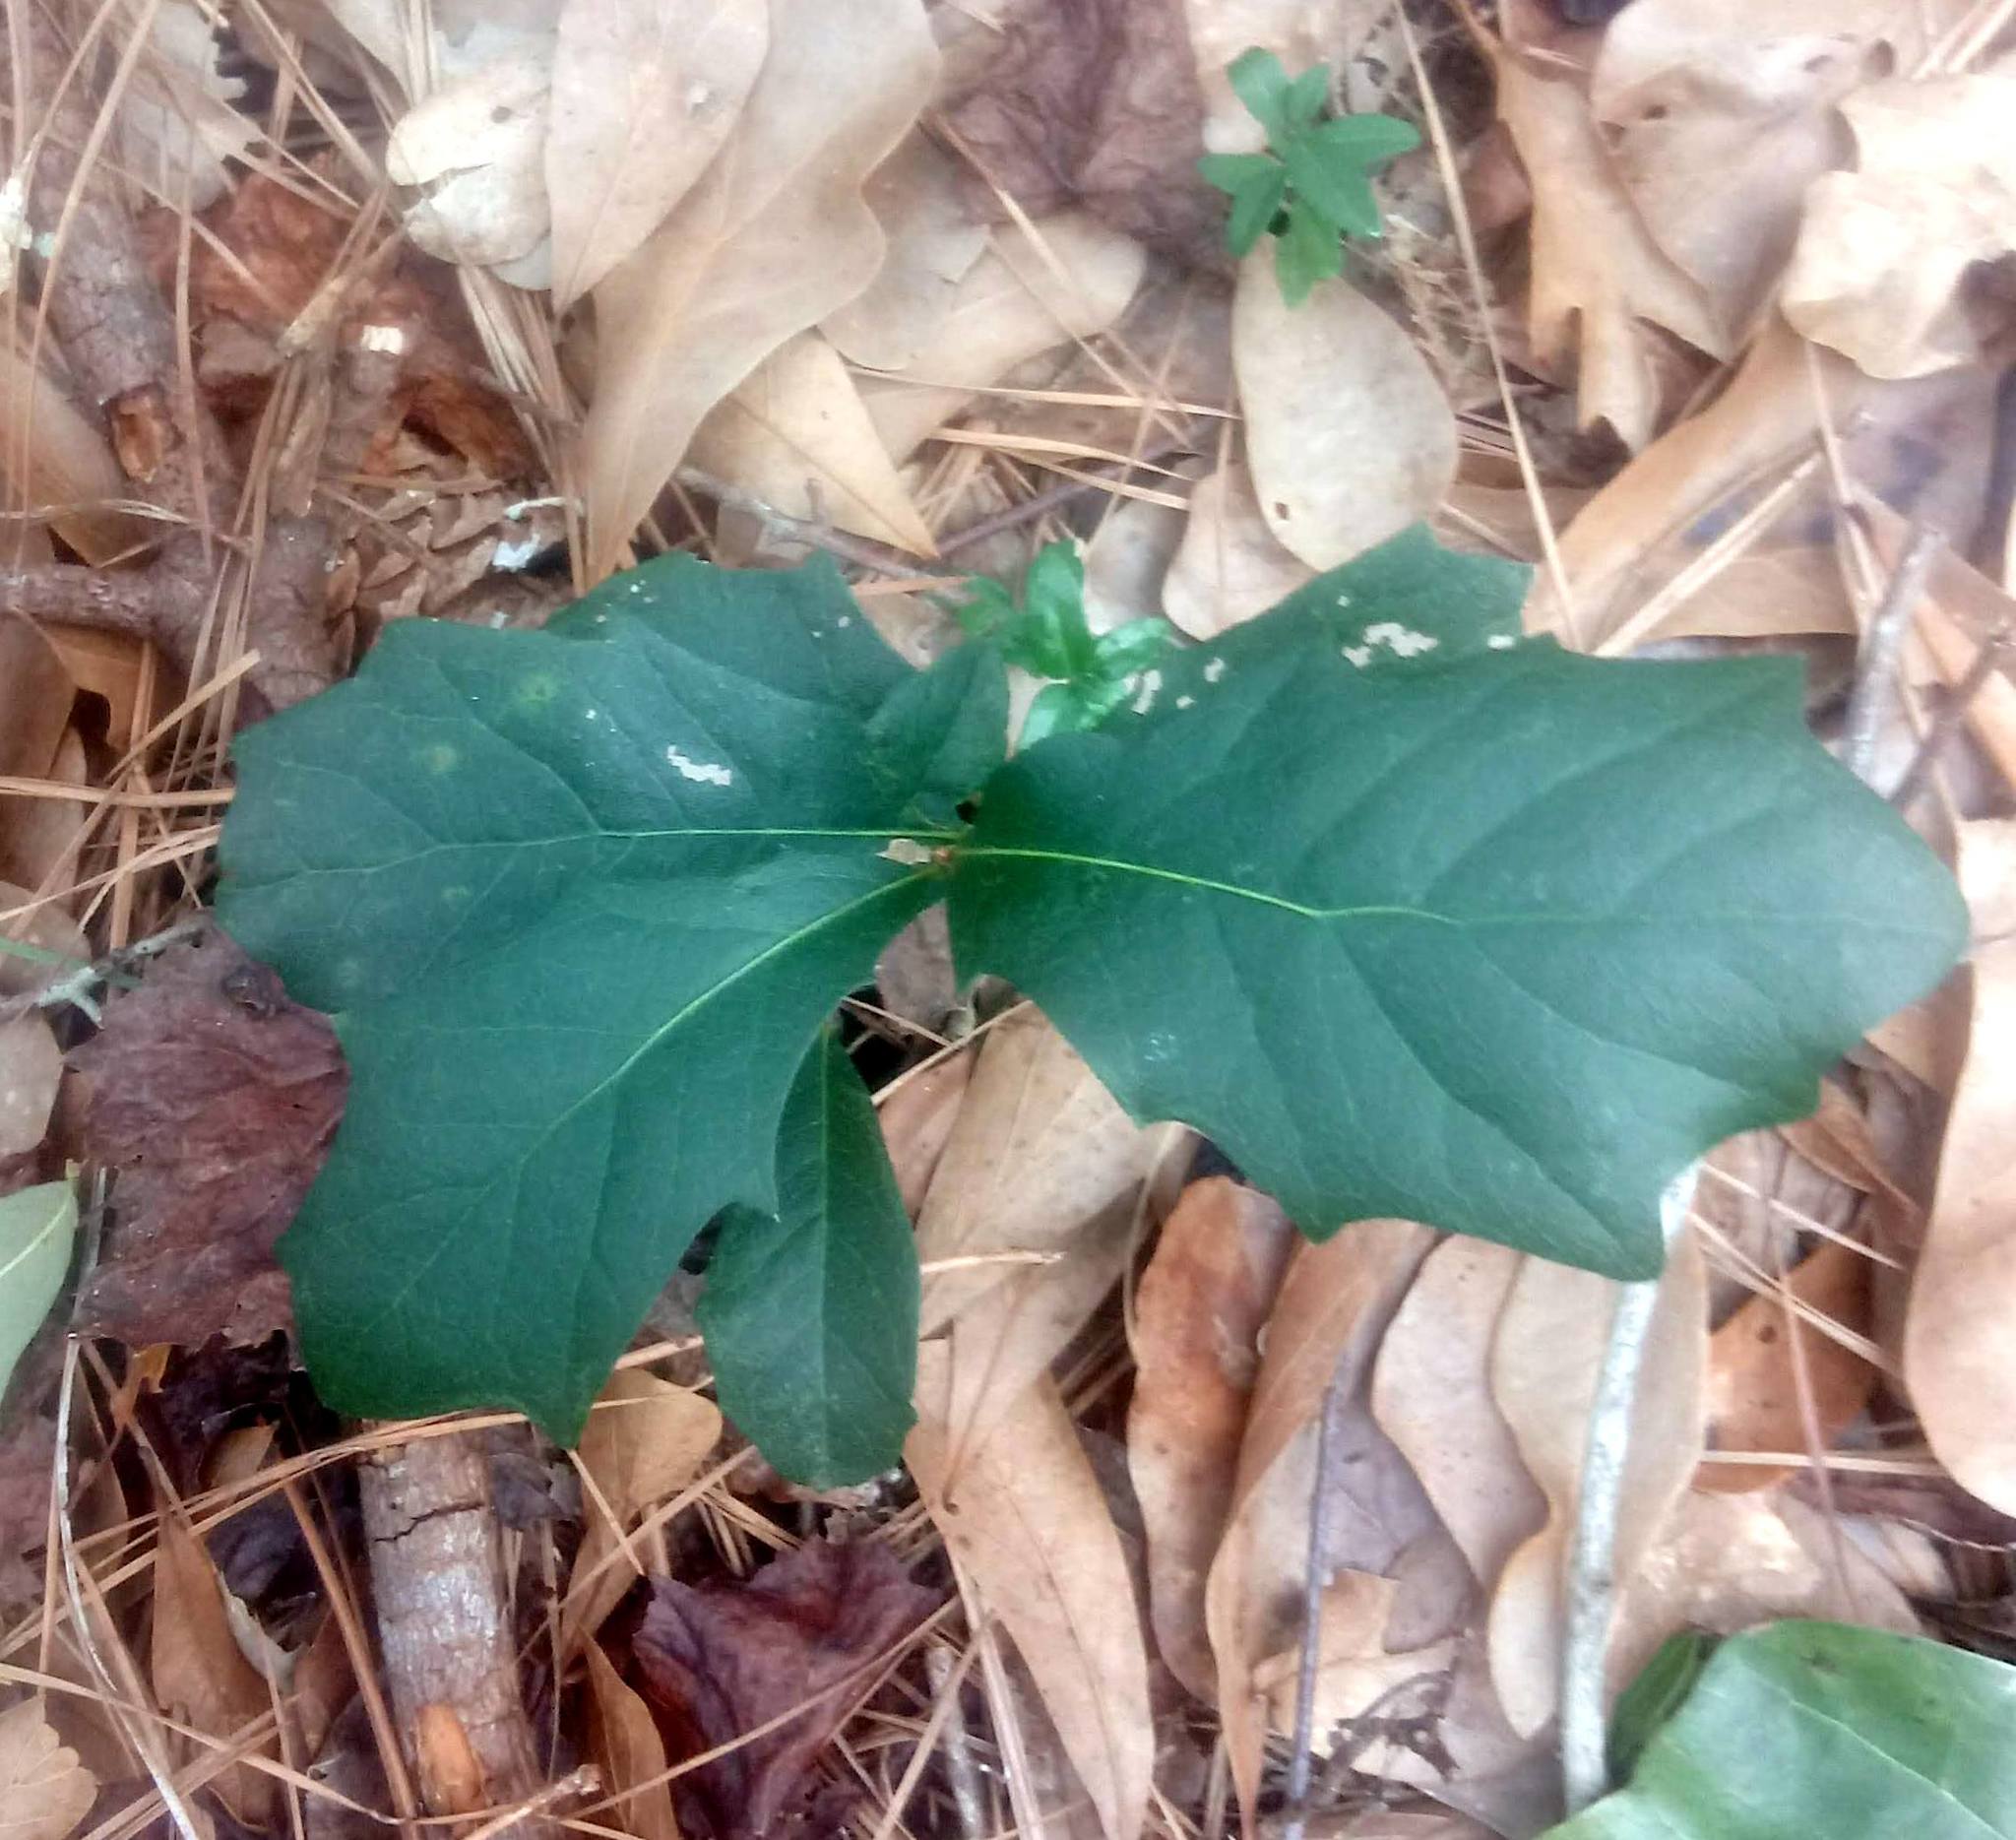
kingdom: Plantae
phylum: Tracheophyta
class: Magnoliopsida
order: Fagales
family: Fagaceae
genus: Quercus
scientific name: Quercus virginiana
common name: Southern live oak
